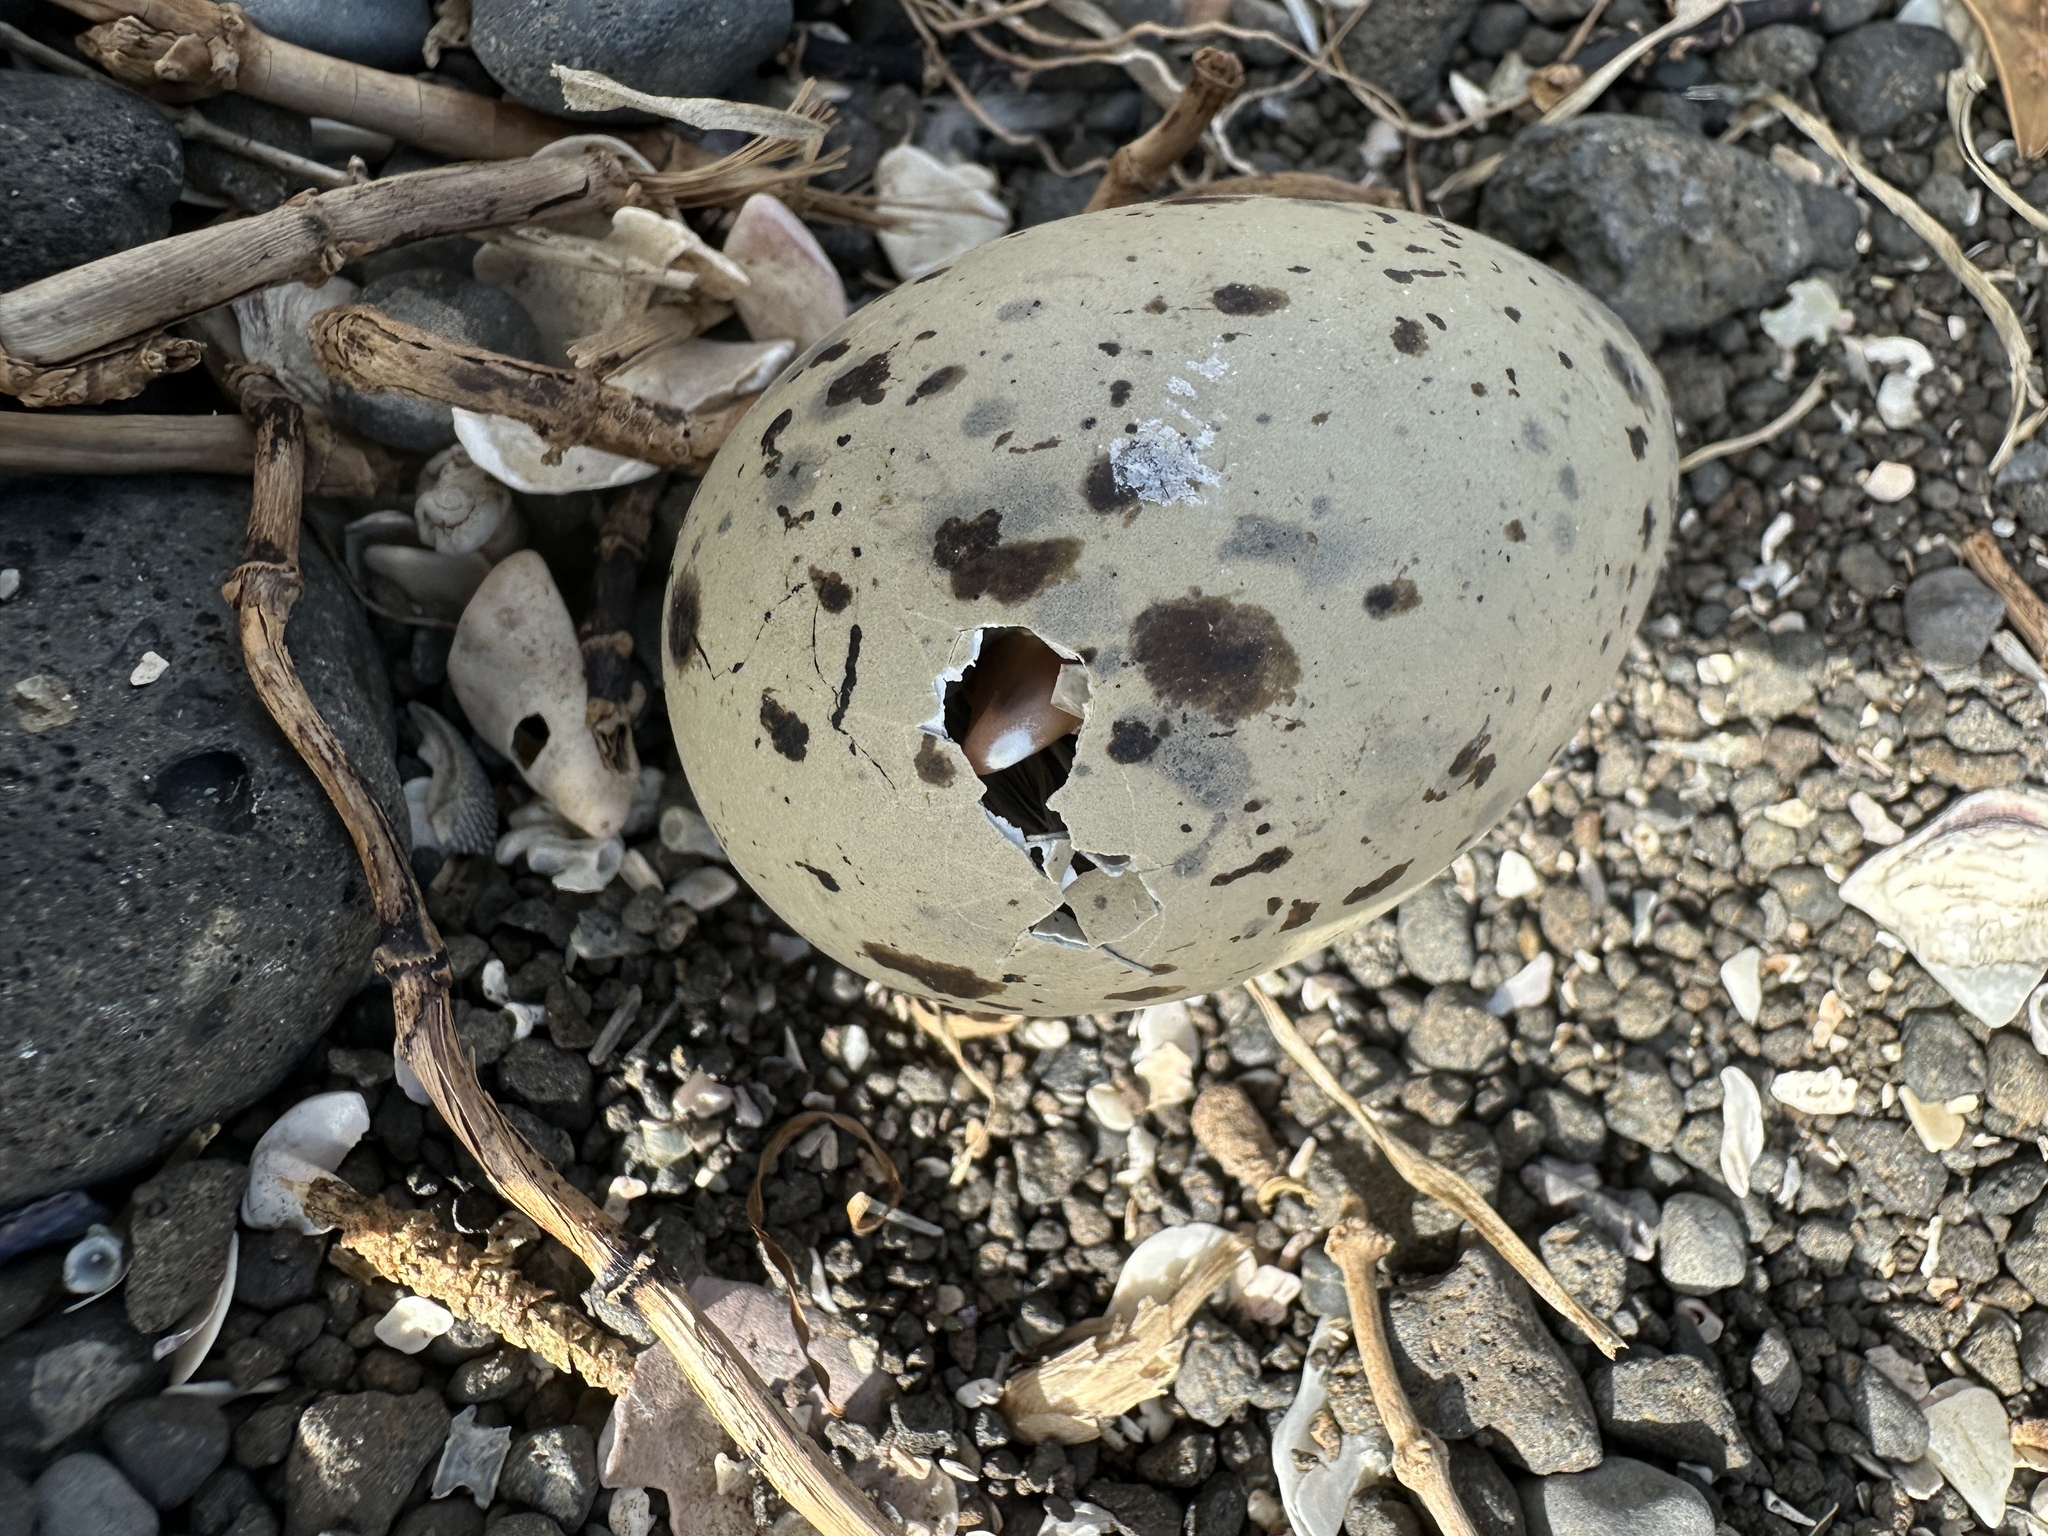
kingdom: Animalia
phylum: Chordata
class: Aves
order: Charadriiformes
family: Laridae
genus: Hydroprogne
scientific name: Hydroprogne caspia
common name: Caspian tern
